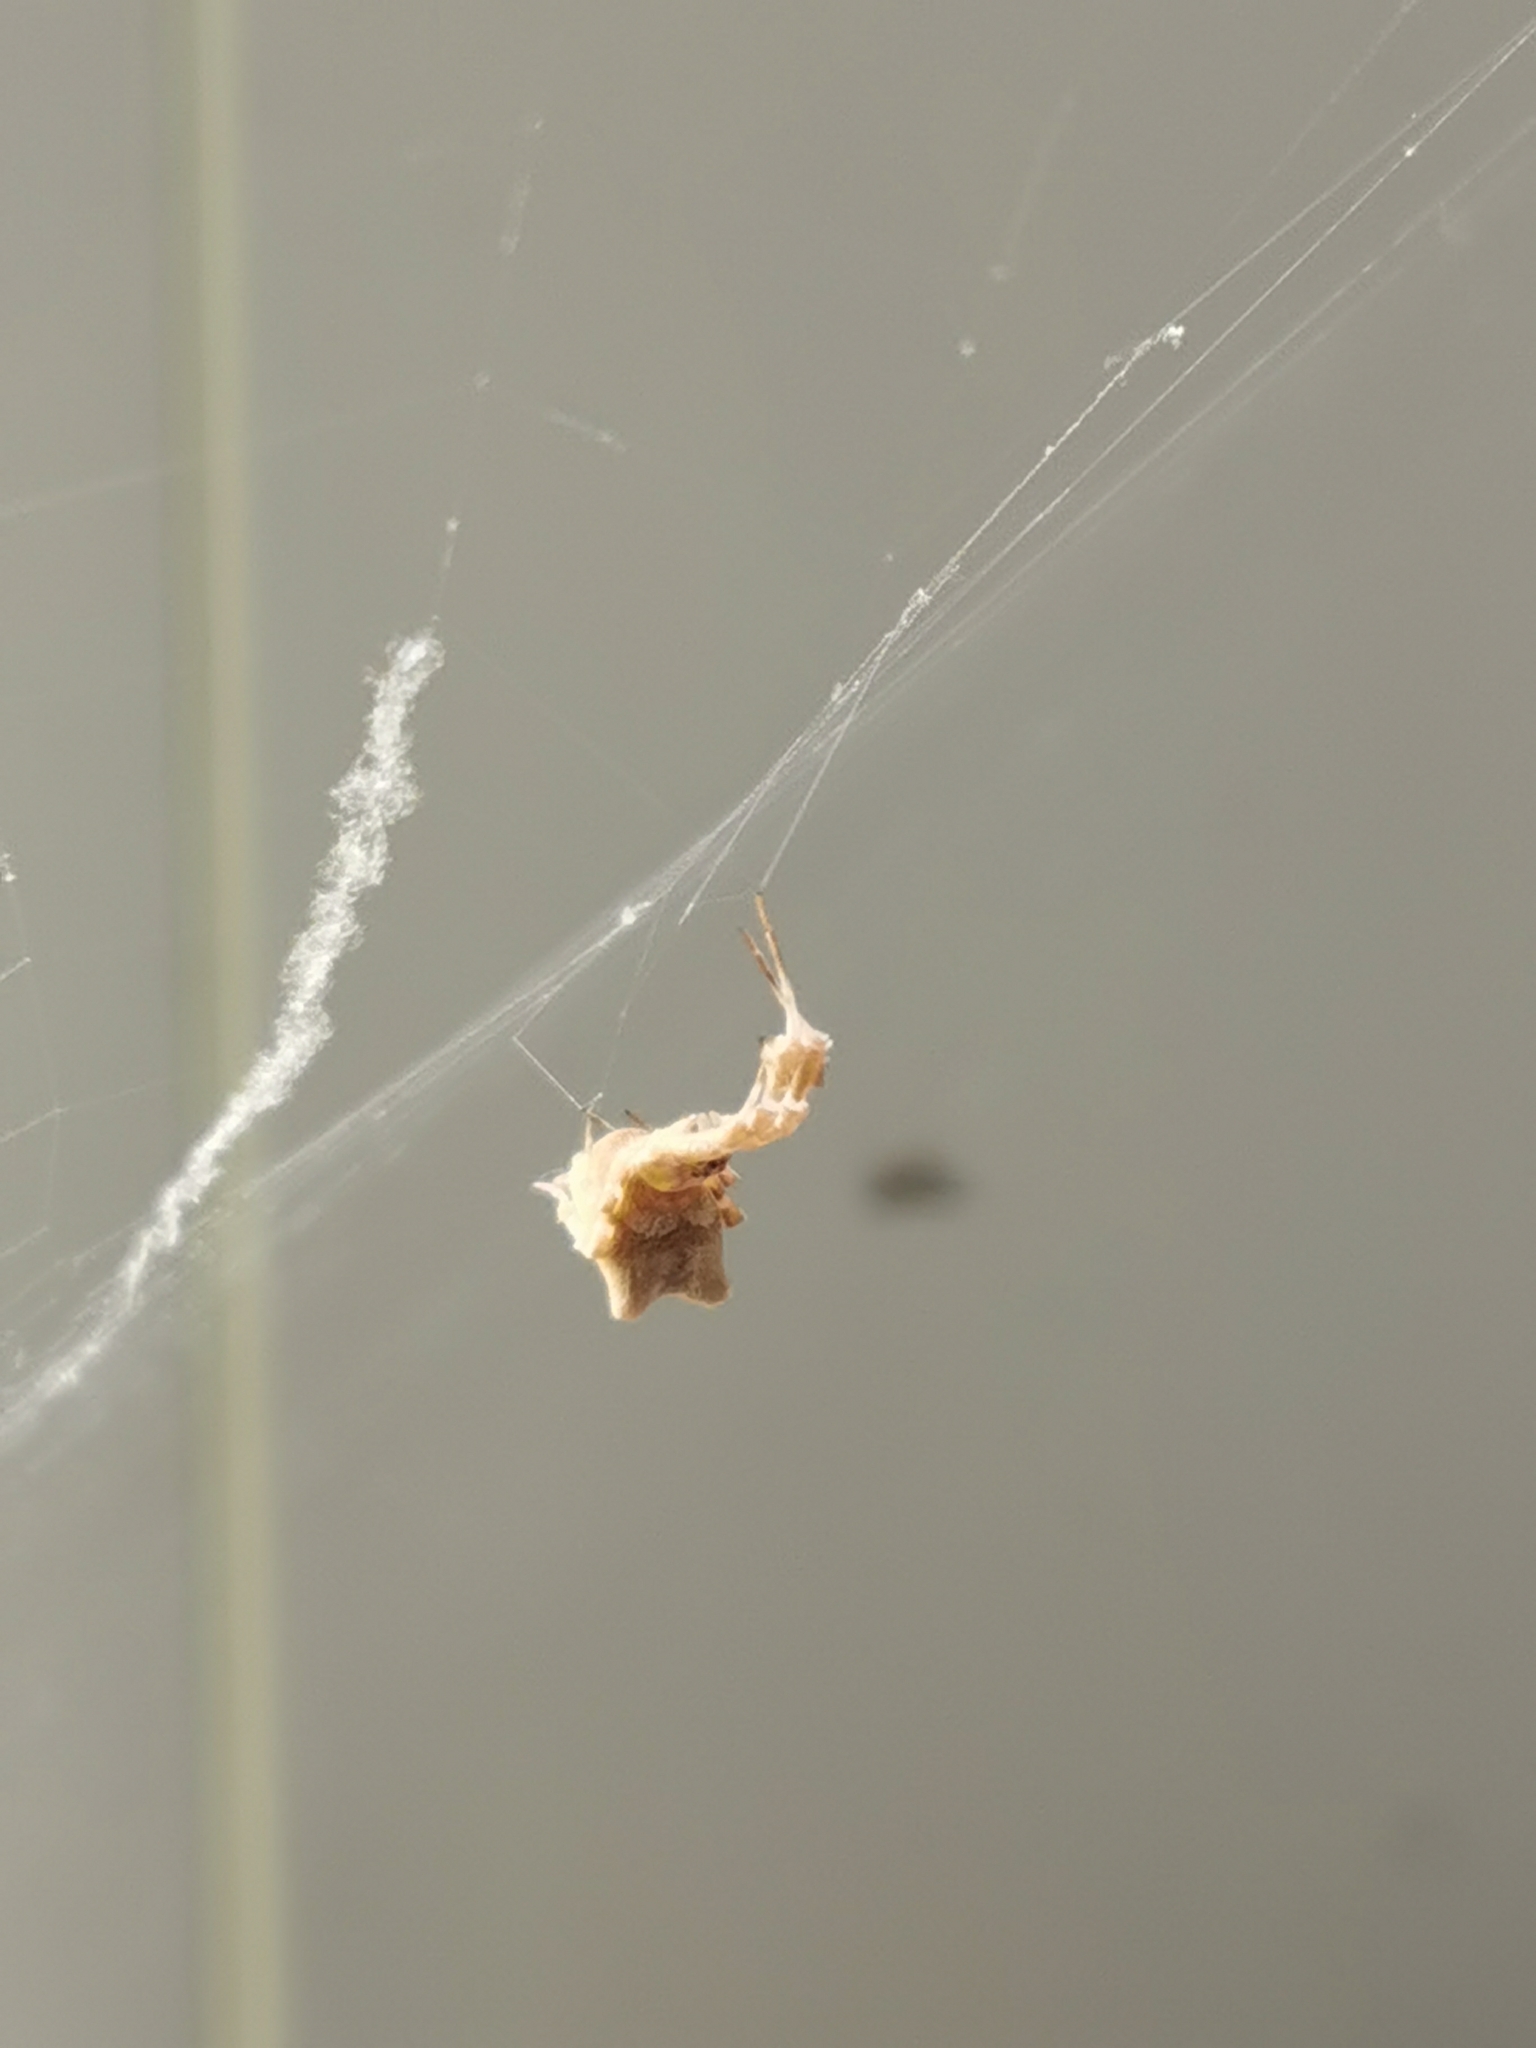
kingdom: Animalia
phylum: Arthropoda
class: Arachnida
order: Araneae
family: Uloboridae
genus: Uloborus
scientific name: Uloborus plumipes
